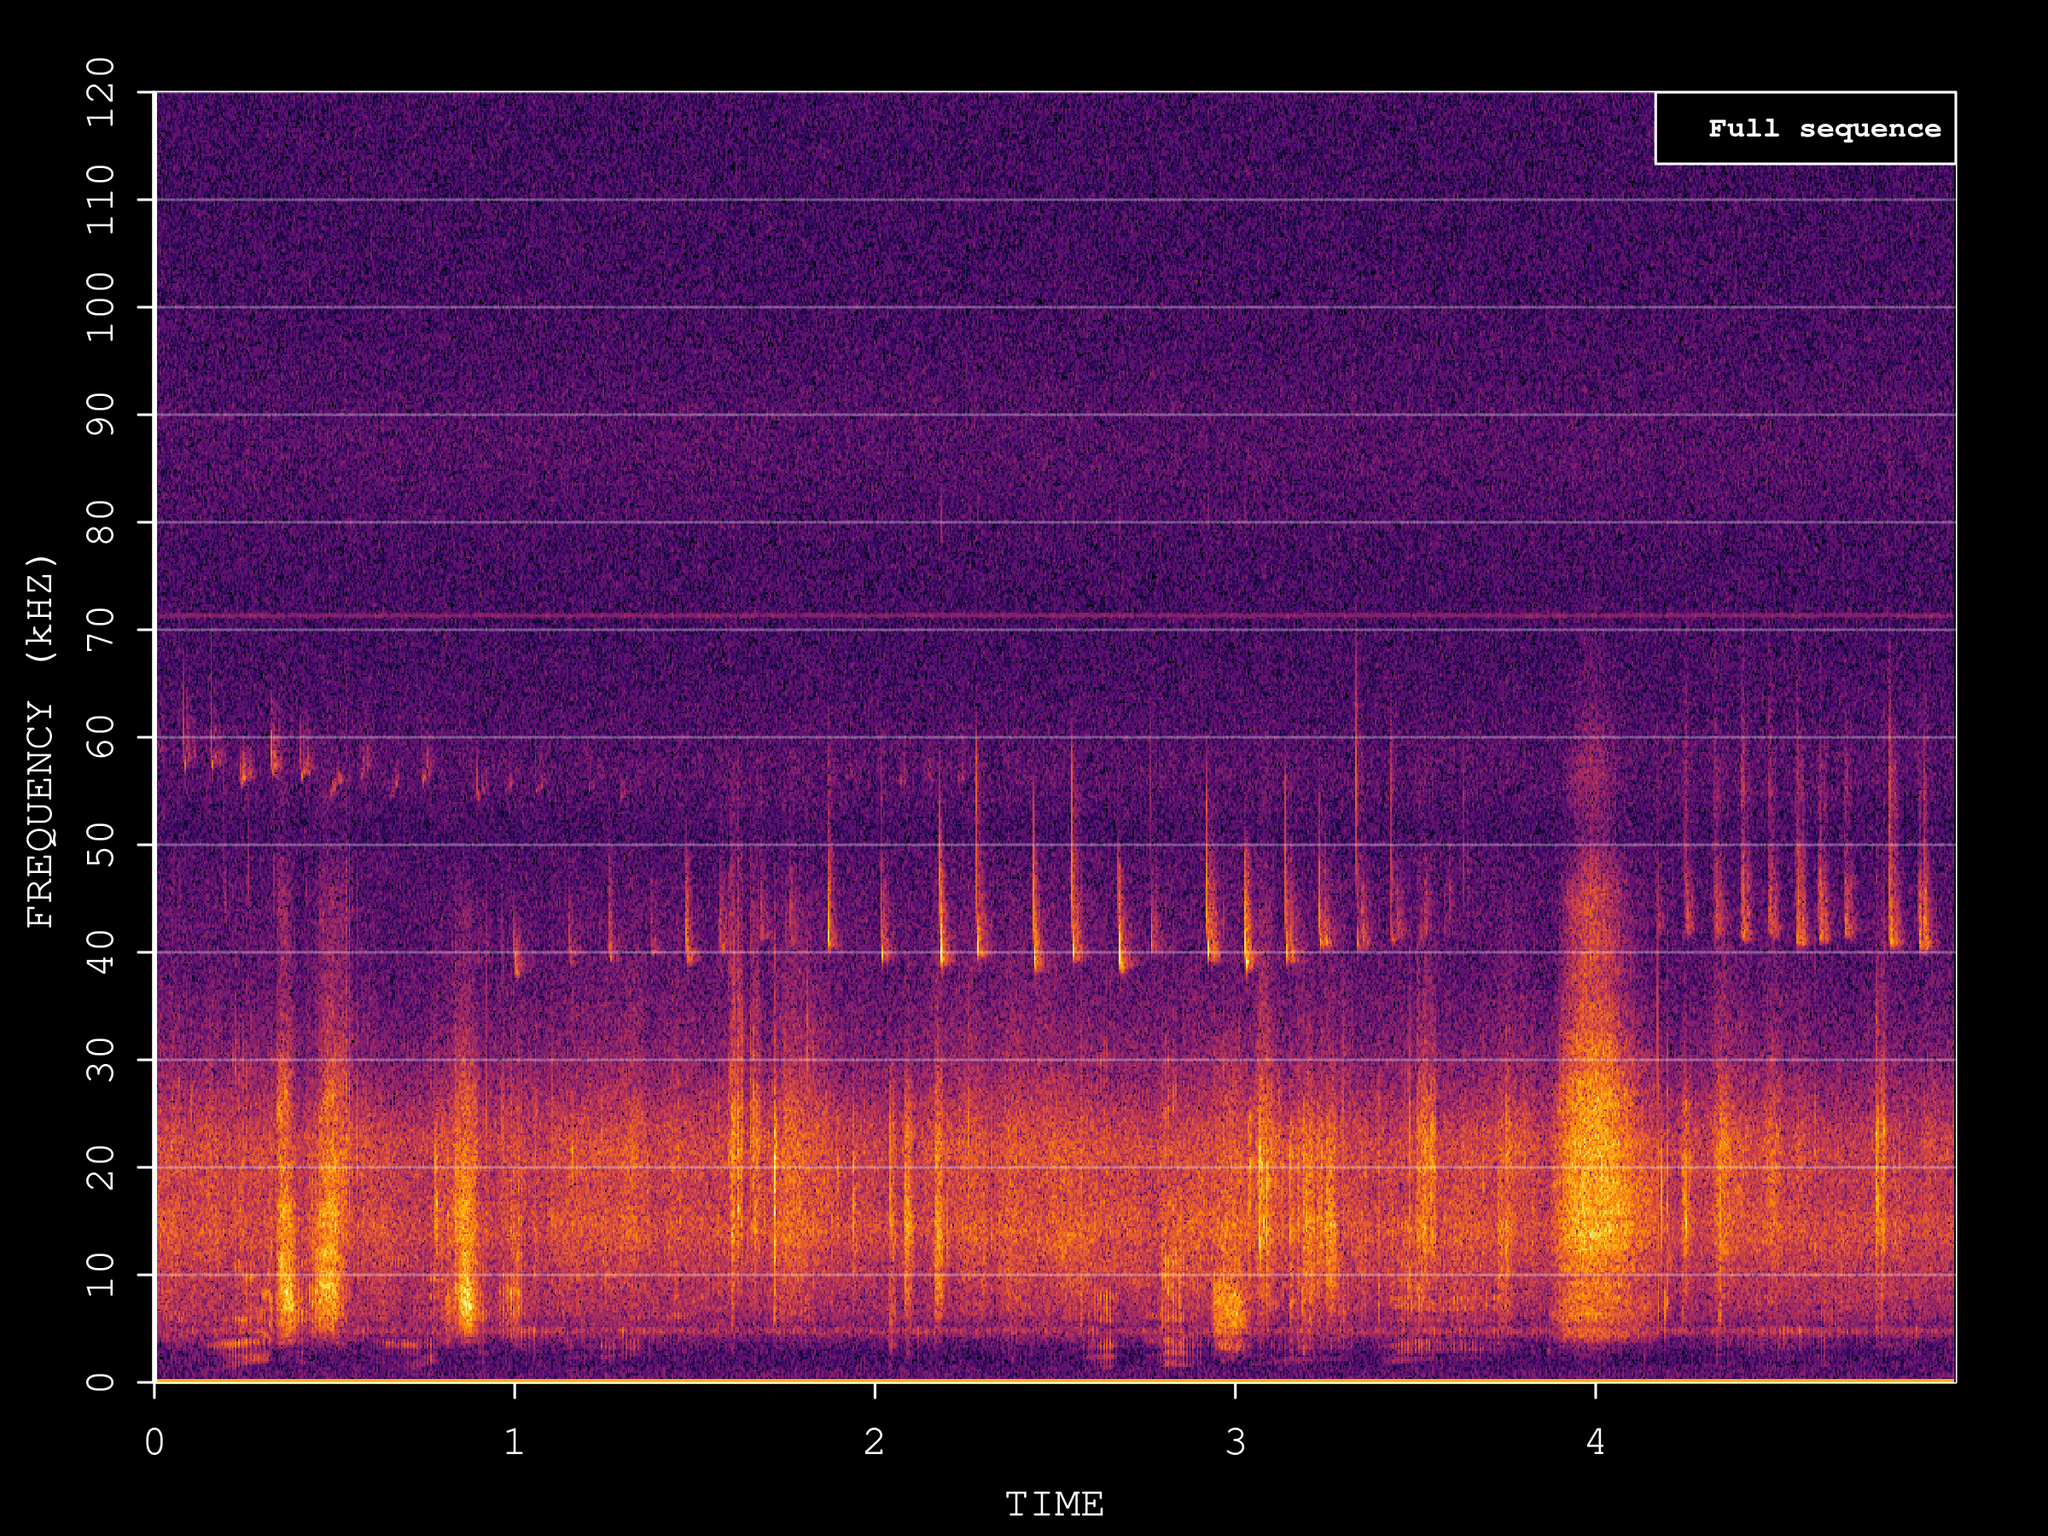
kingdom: Animalia
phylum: Chordata
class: Mammalia
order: Chiroptera
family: Vespertilionidae
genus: Pipistrellus
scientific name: Pipistrellus nathusii
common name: Nathusius's pipistrelle
